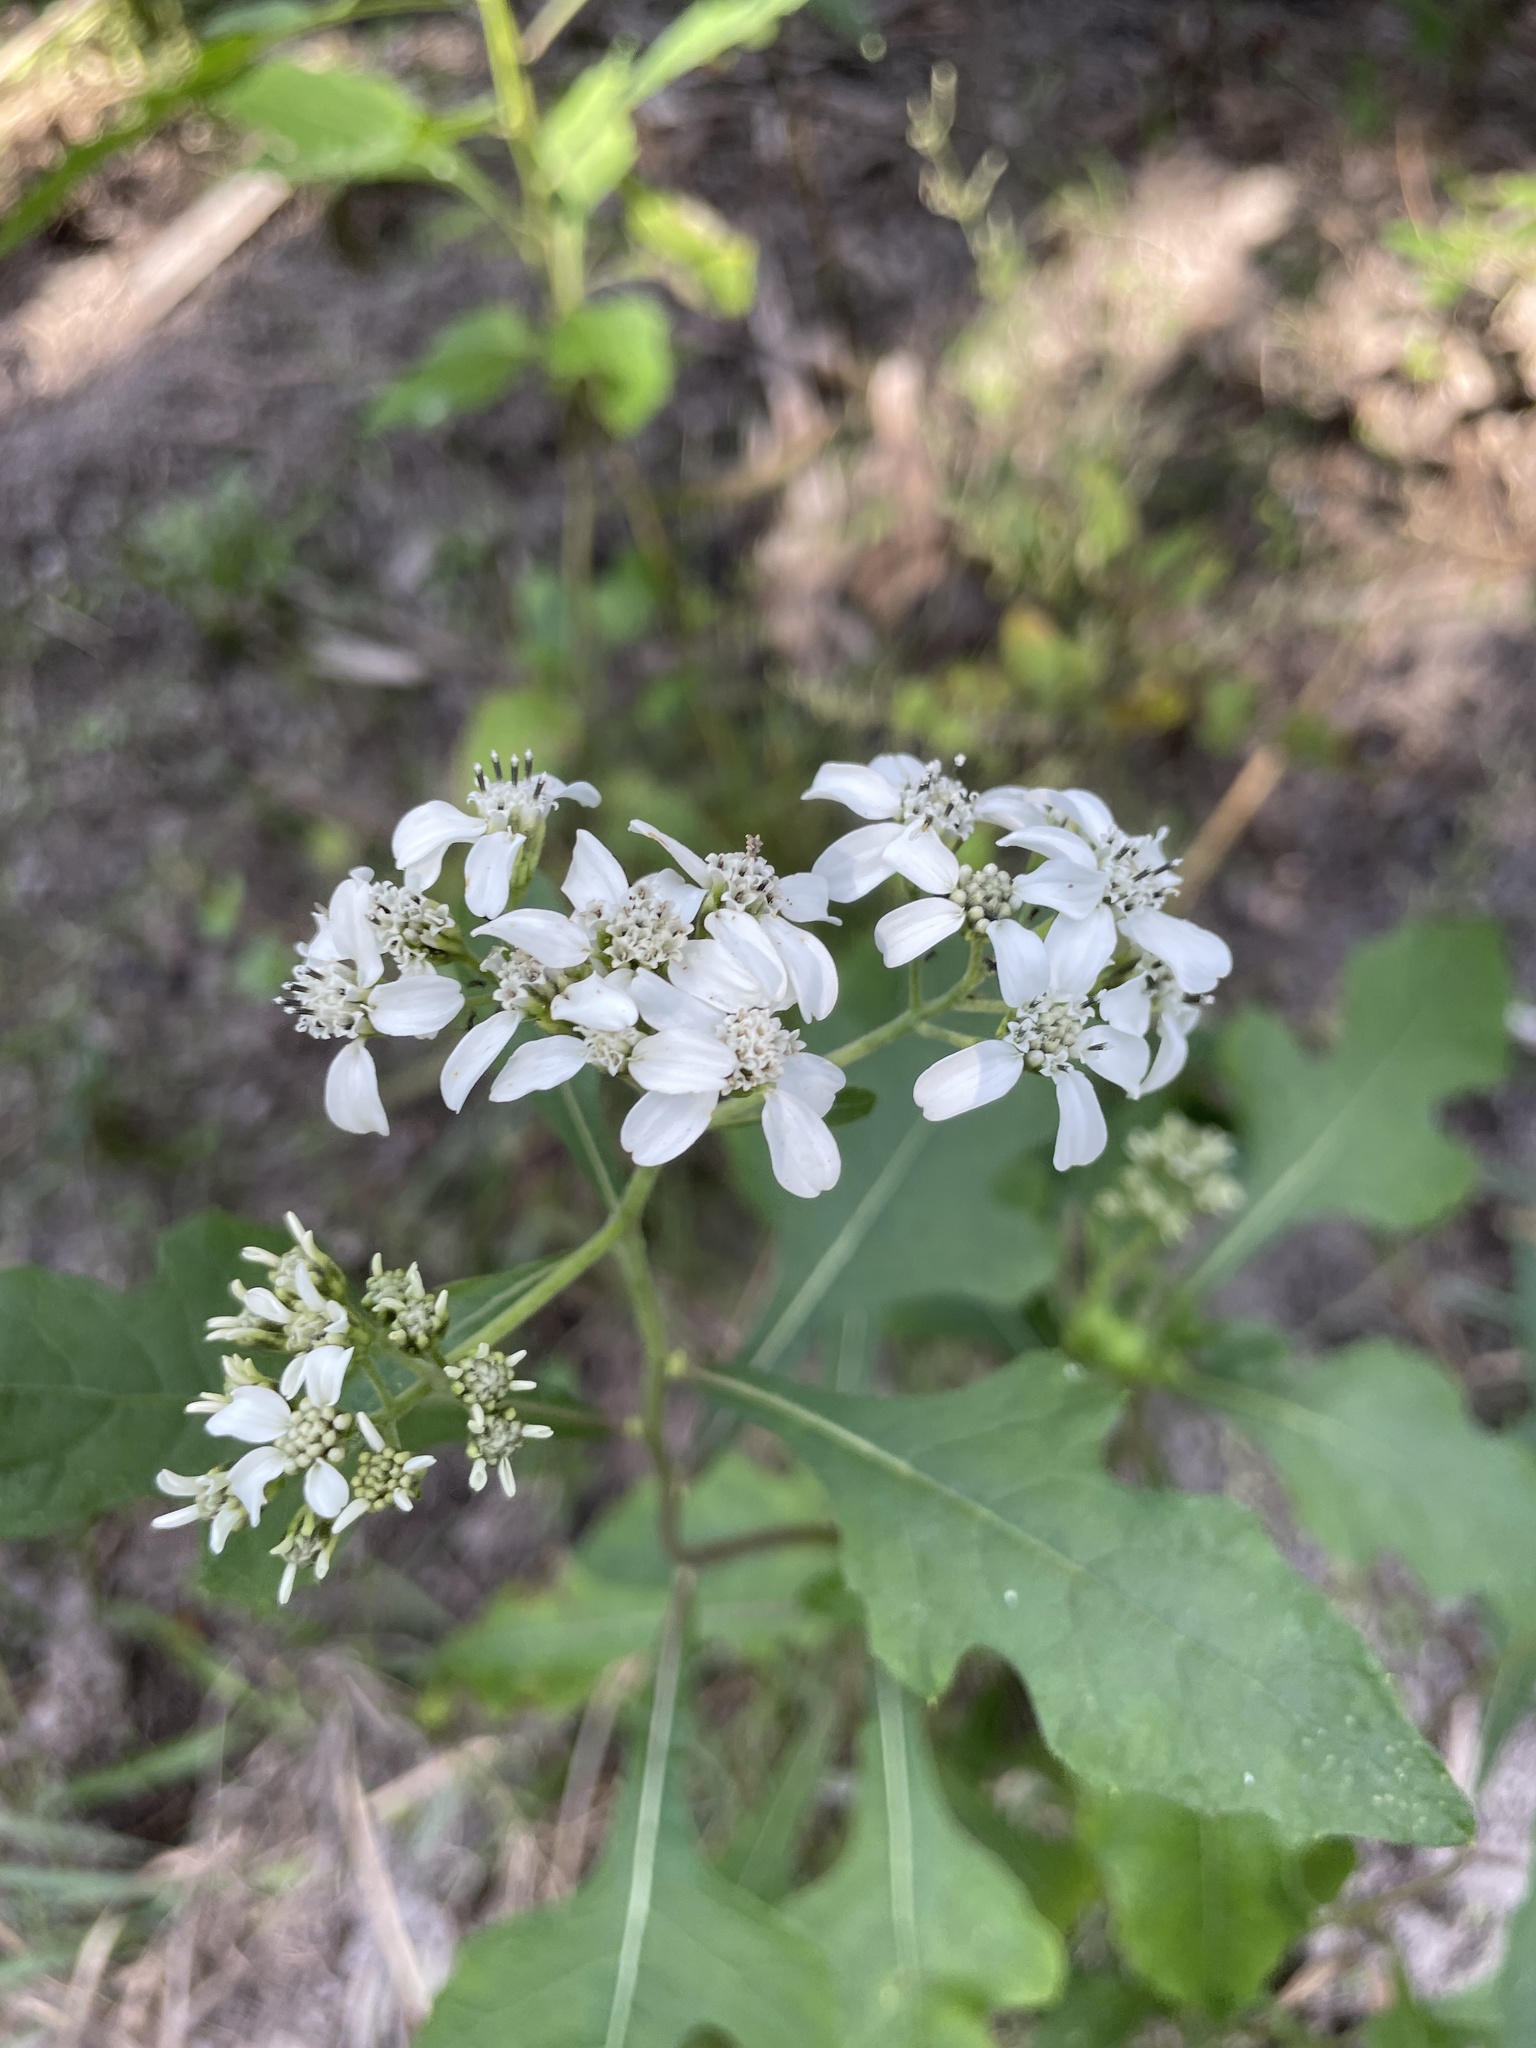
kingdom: Plantae
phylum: Tracheophyta
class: Magnoliopsida
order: Asterales
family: Asteraceae
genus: Verbesina
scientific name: Verbesina virginica
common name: Frostweed
